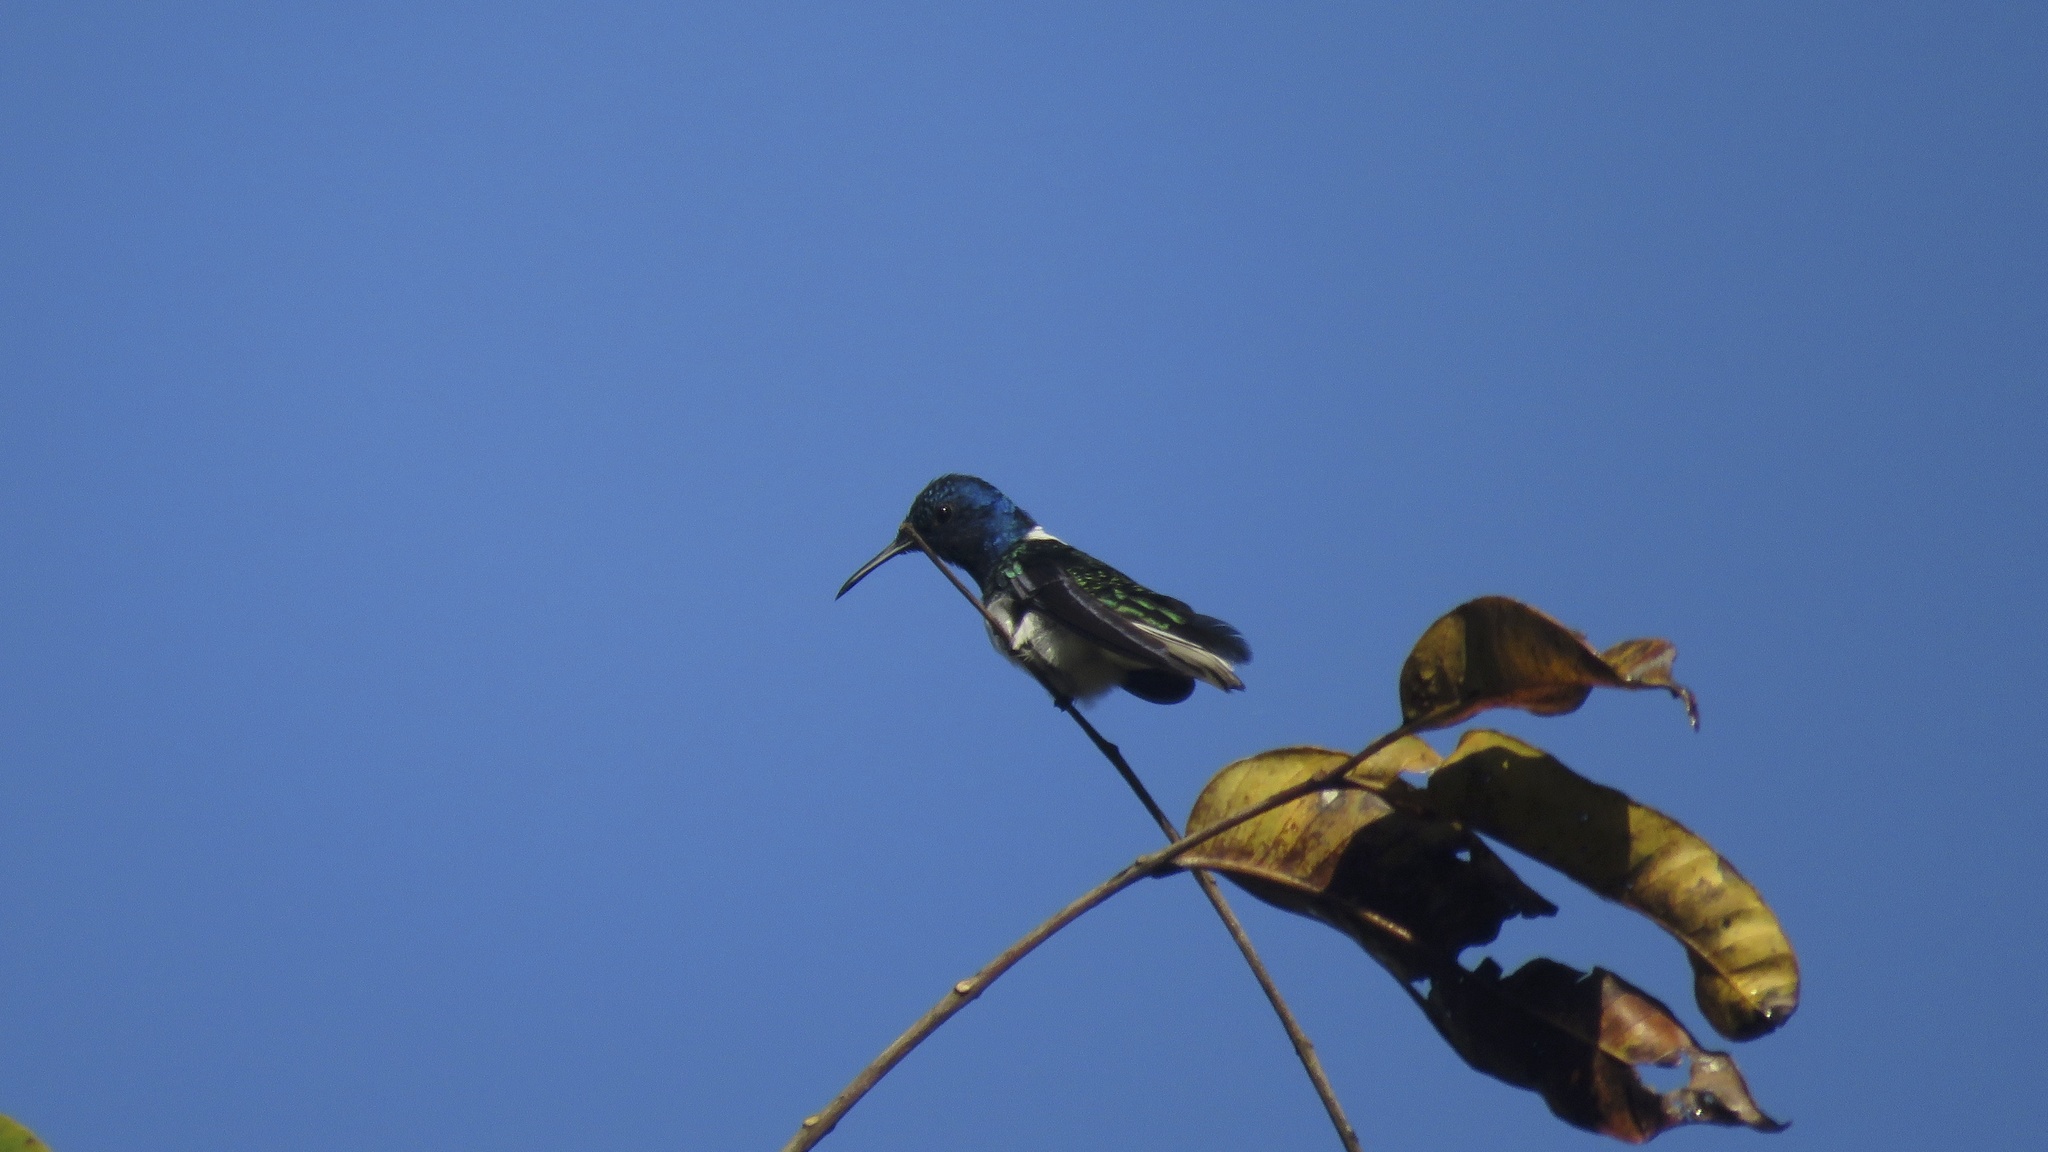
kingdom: Animalia
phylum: Chordata
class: Aves
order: Apodiformes
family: Trochilidae
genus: Florisuga
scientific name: Florisuga mellivora
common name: White-necked jacobin
